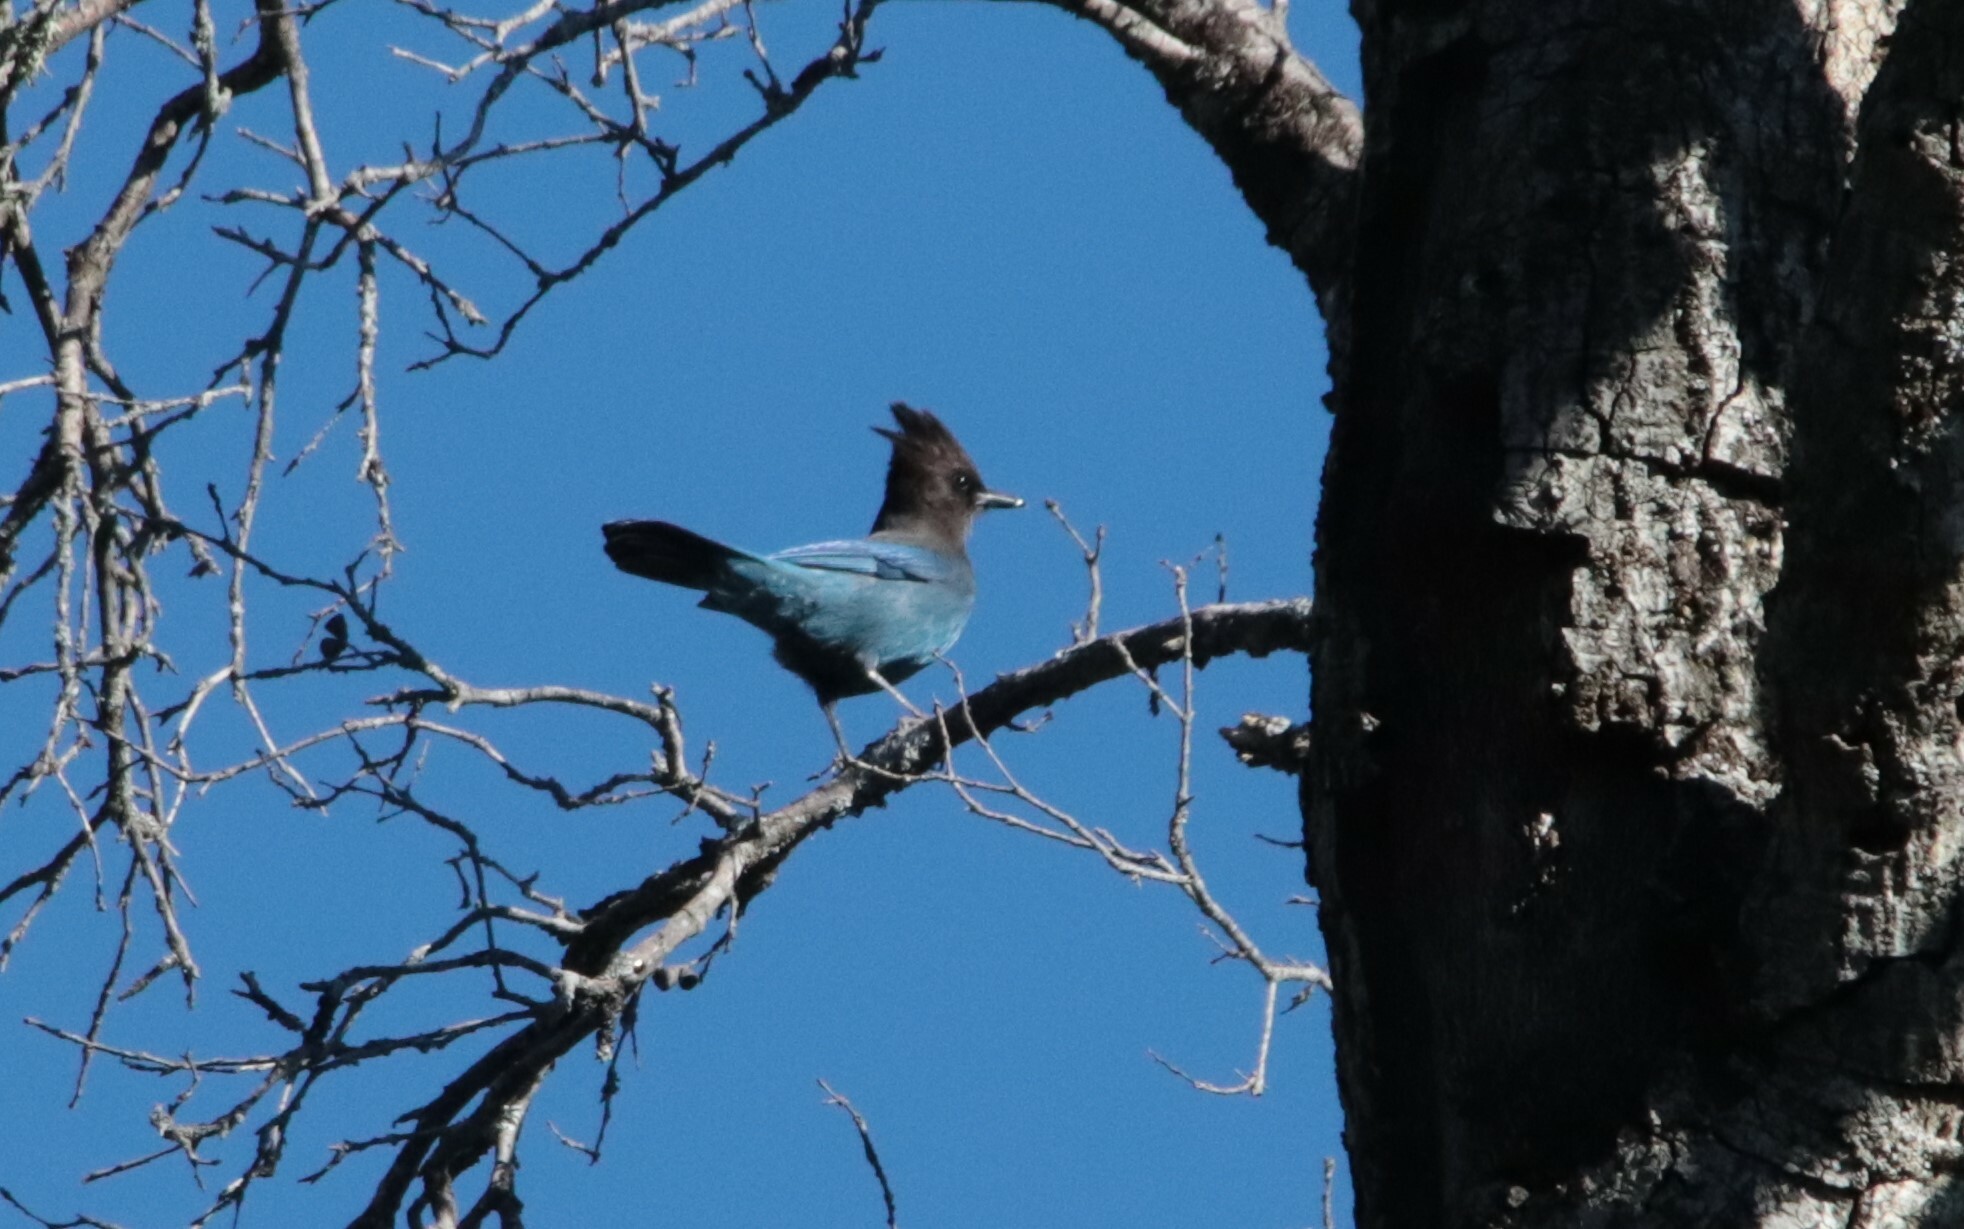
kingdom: Animalia
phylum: Chordata
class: Aves
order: Passeriformes
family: Corvidae
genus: Cyanocitta
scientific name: Cyanocitta stelleri
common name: Steller's jay
